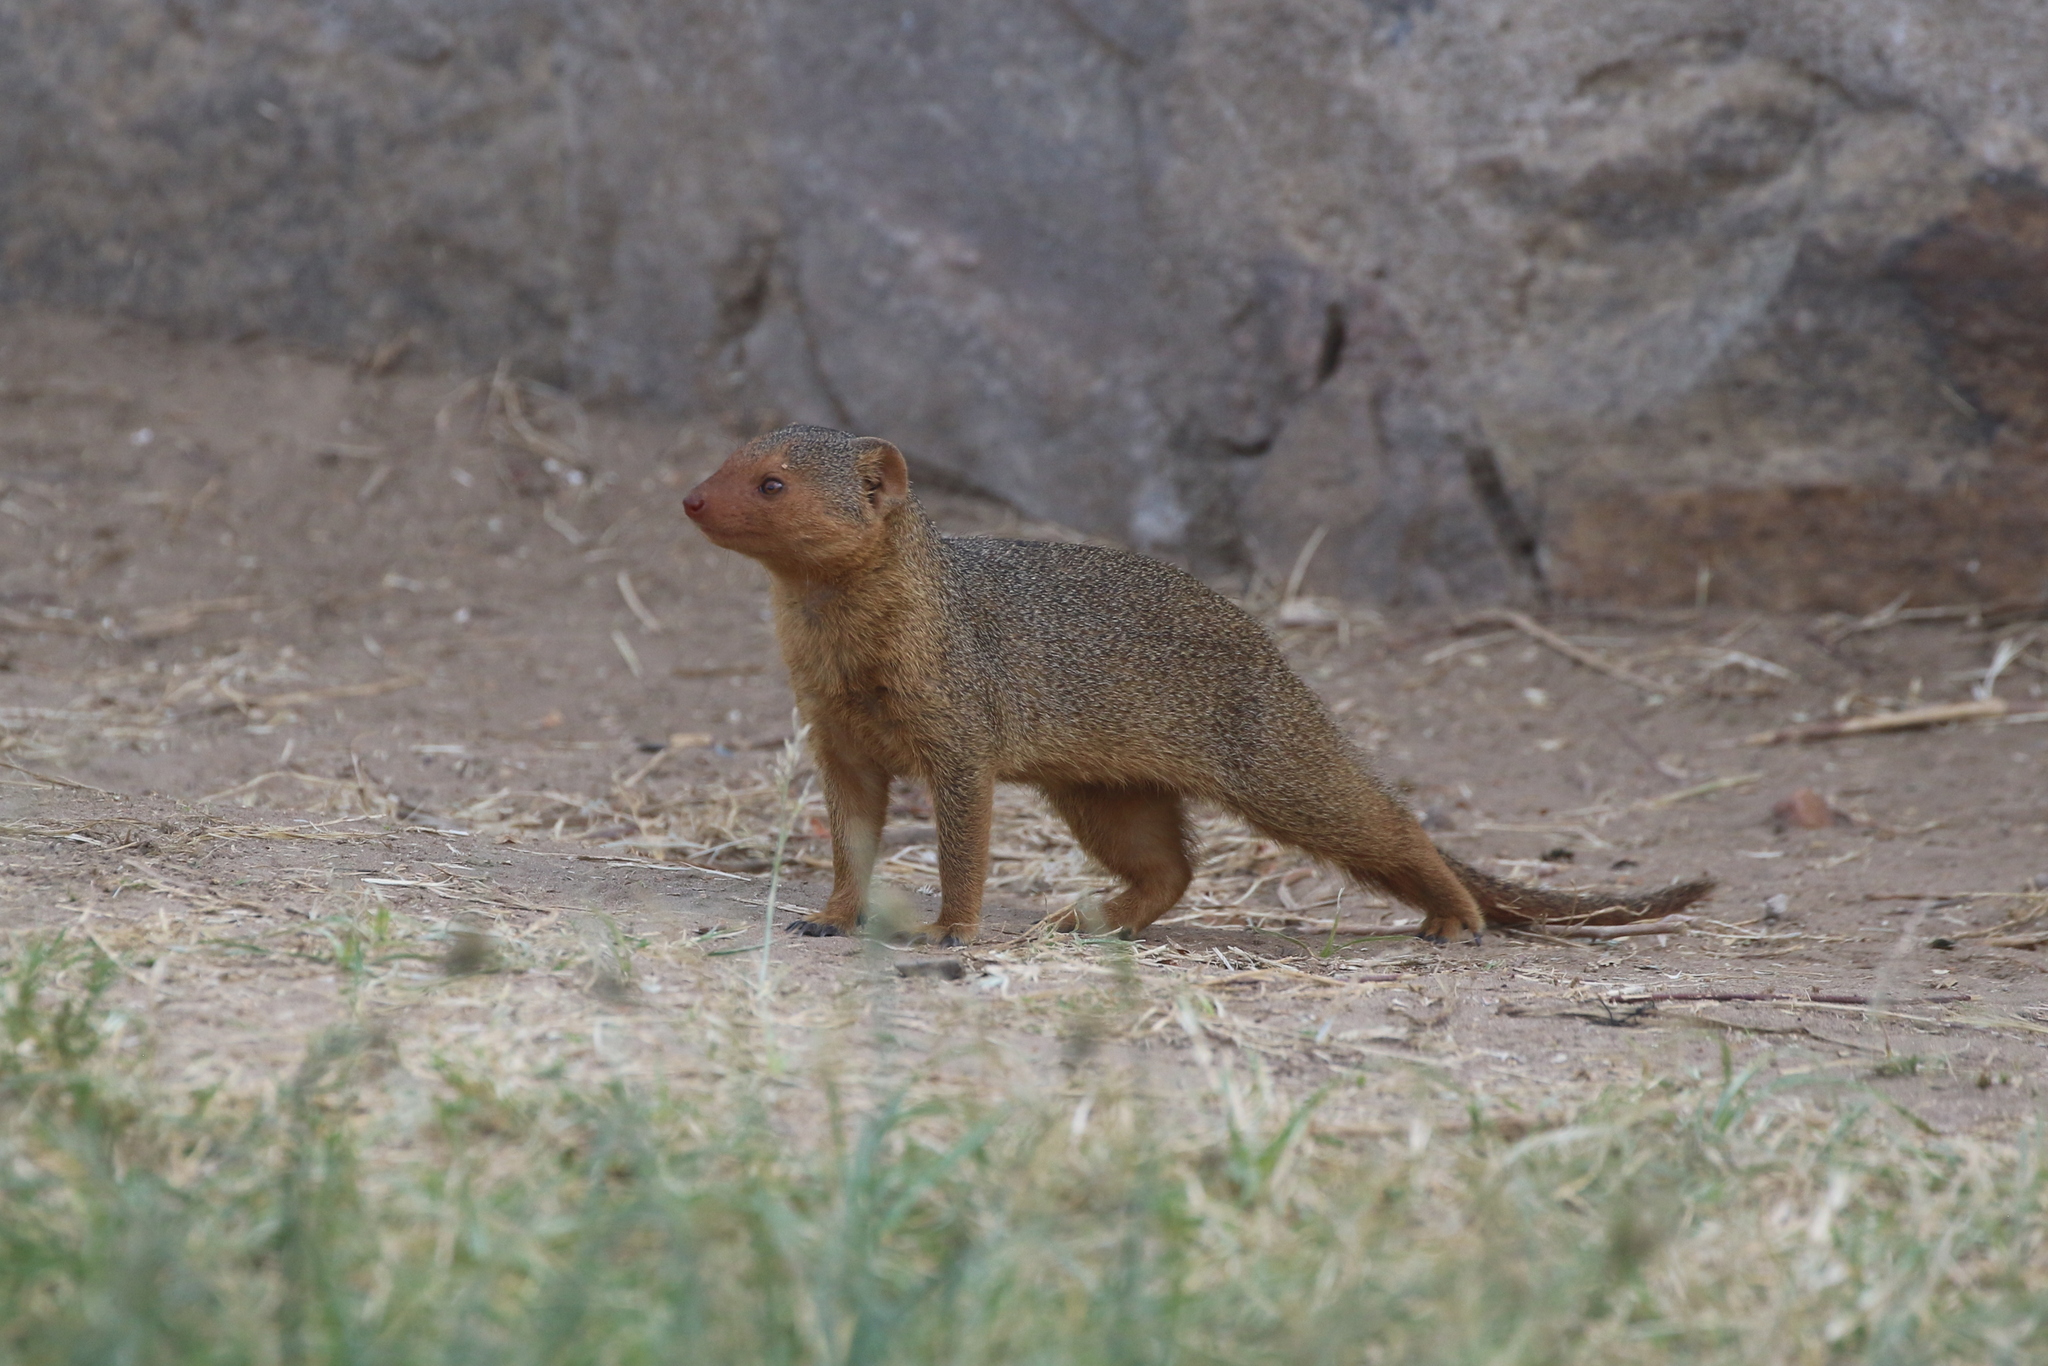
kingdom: Animalia
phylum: Chordata
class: Mammalia
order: Carnivora
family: Herpestidae
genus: Helogale
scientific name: Helogale parvula
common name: Common dwarf mongoose
